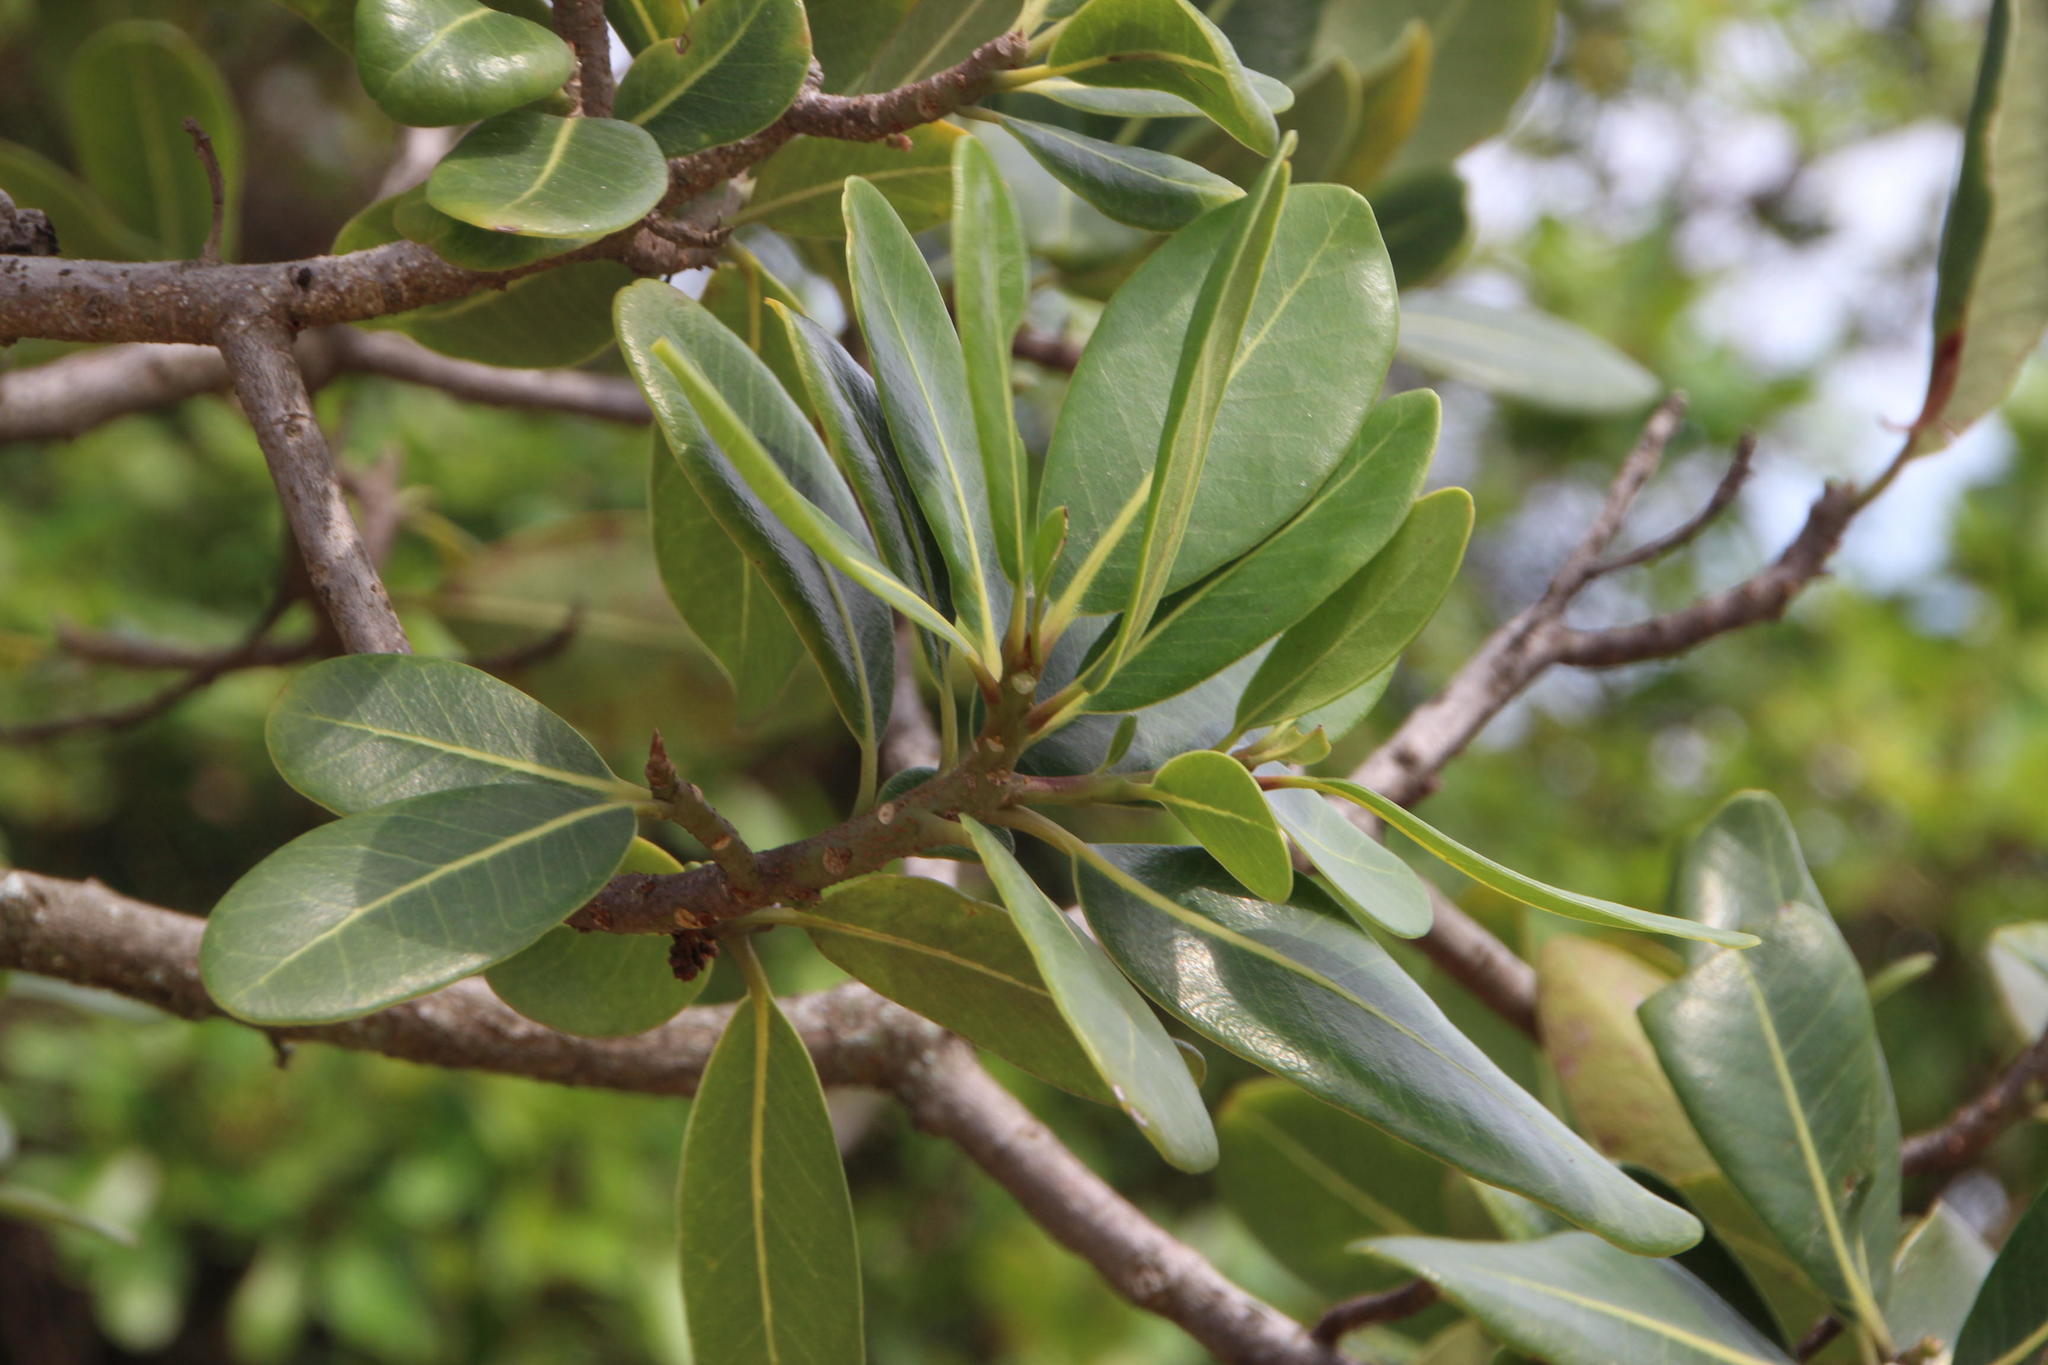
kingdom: Plantae
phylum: Tracheophyta
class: Magnoliopsida
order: Ericales
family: Sapotaceae
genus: Mimusops
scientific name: Mimusops caffra
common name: Coastal red milkwood
